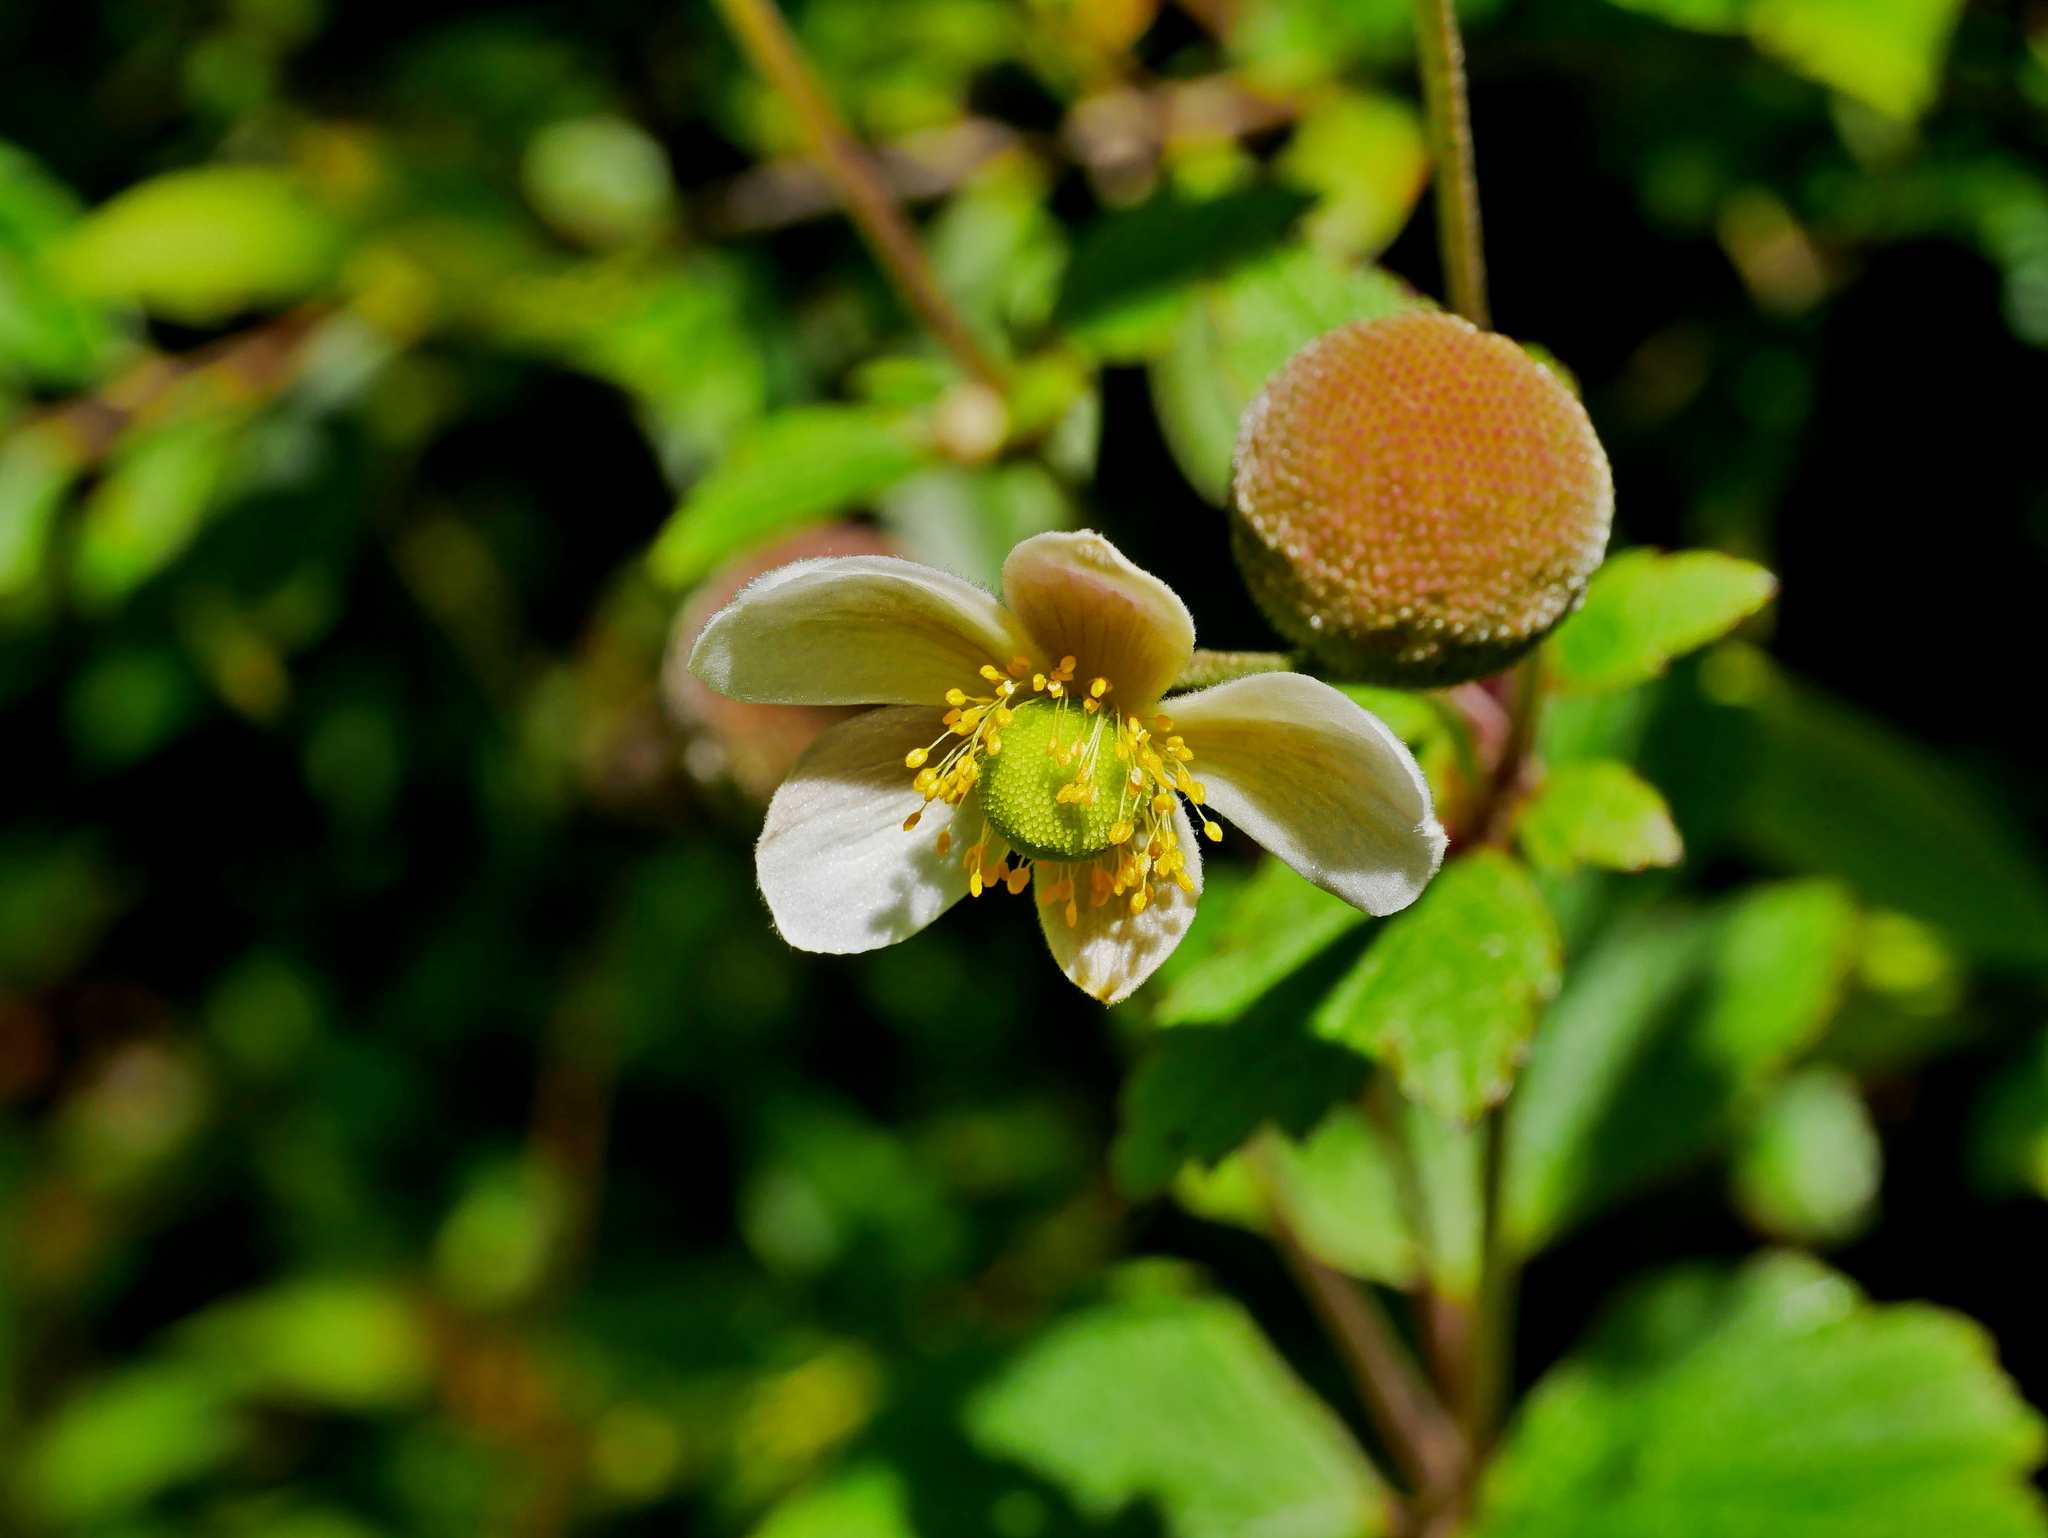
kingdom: Plantae
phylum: Tracheophyta
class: Magnoliopsida
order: Ranunculales
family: Ranunculaceae
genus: Eriocapitella
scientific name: Eriocapitella vitifolia
